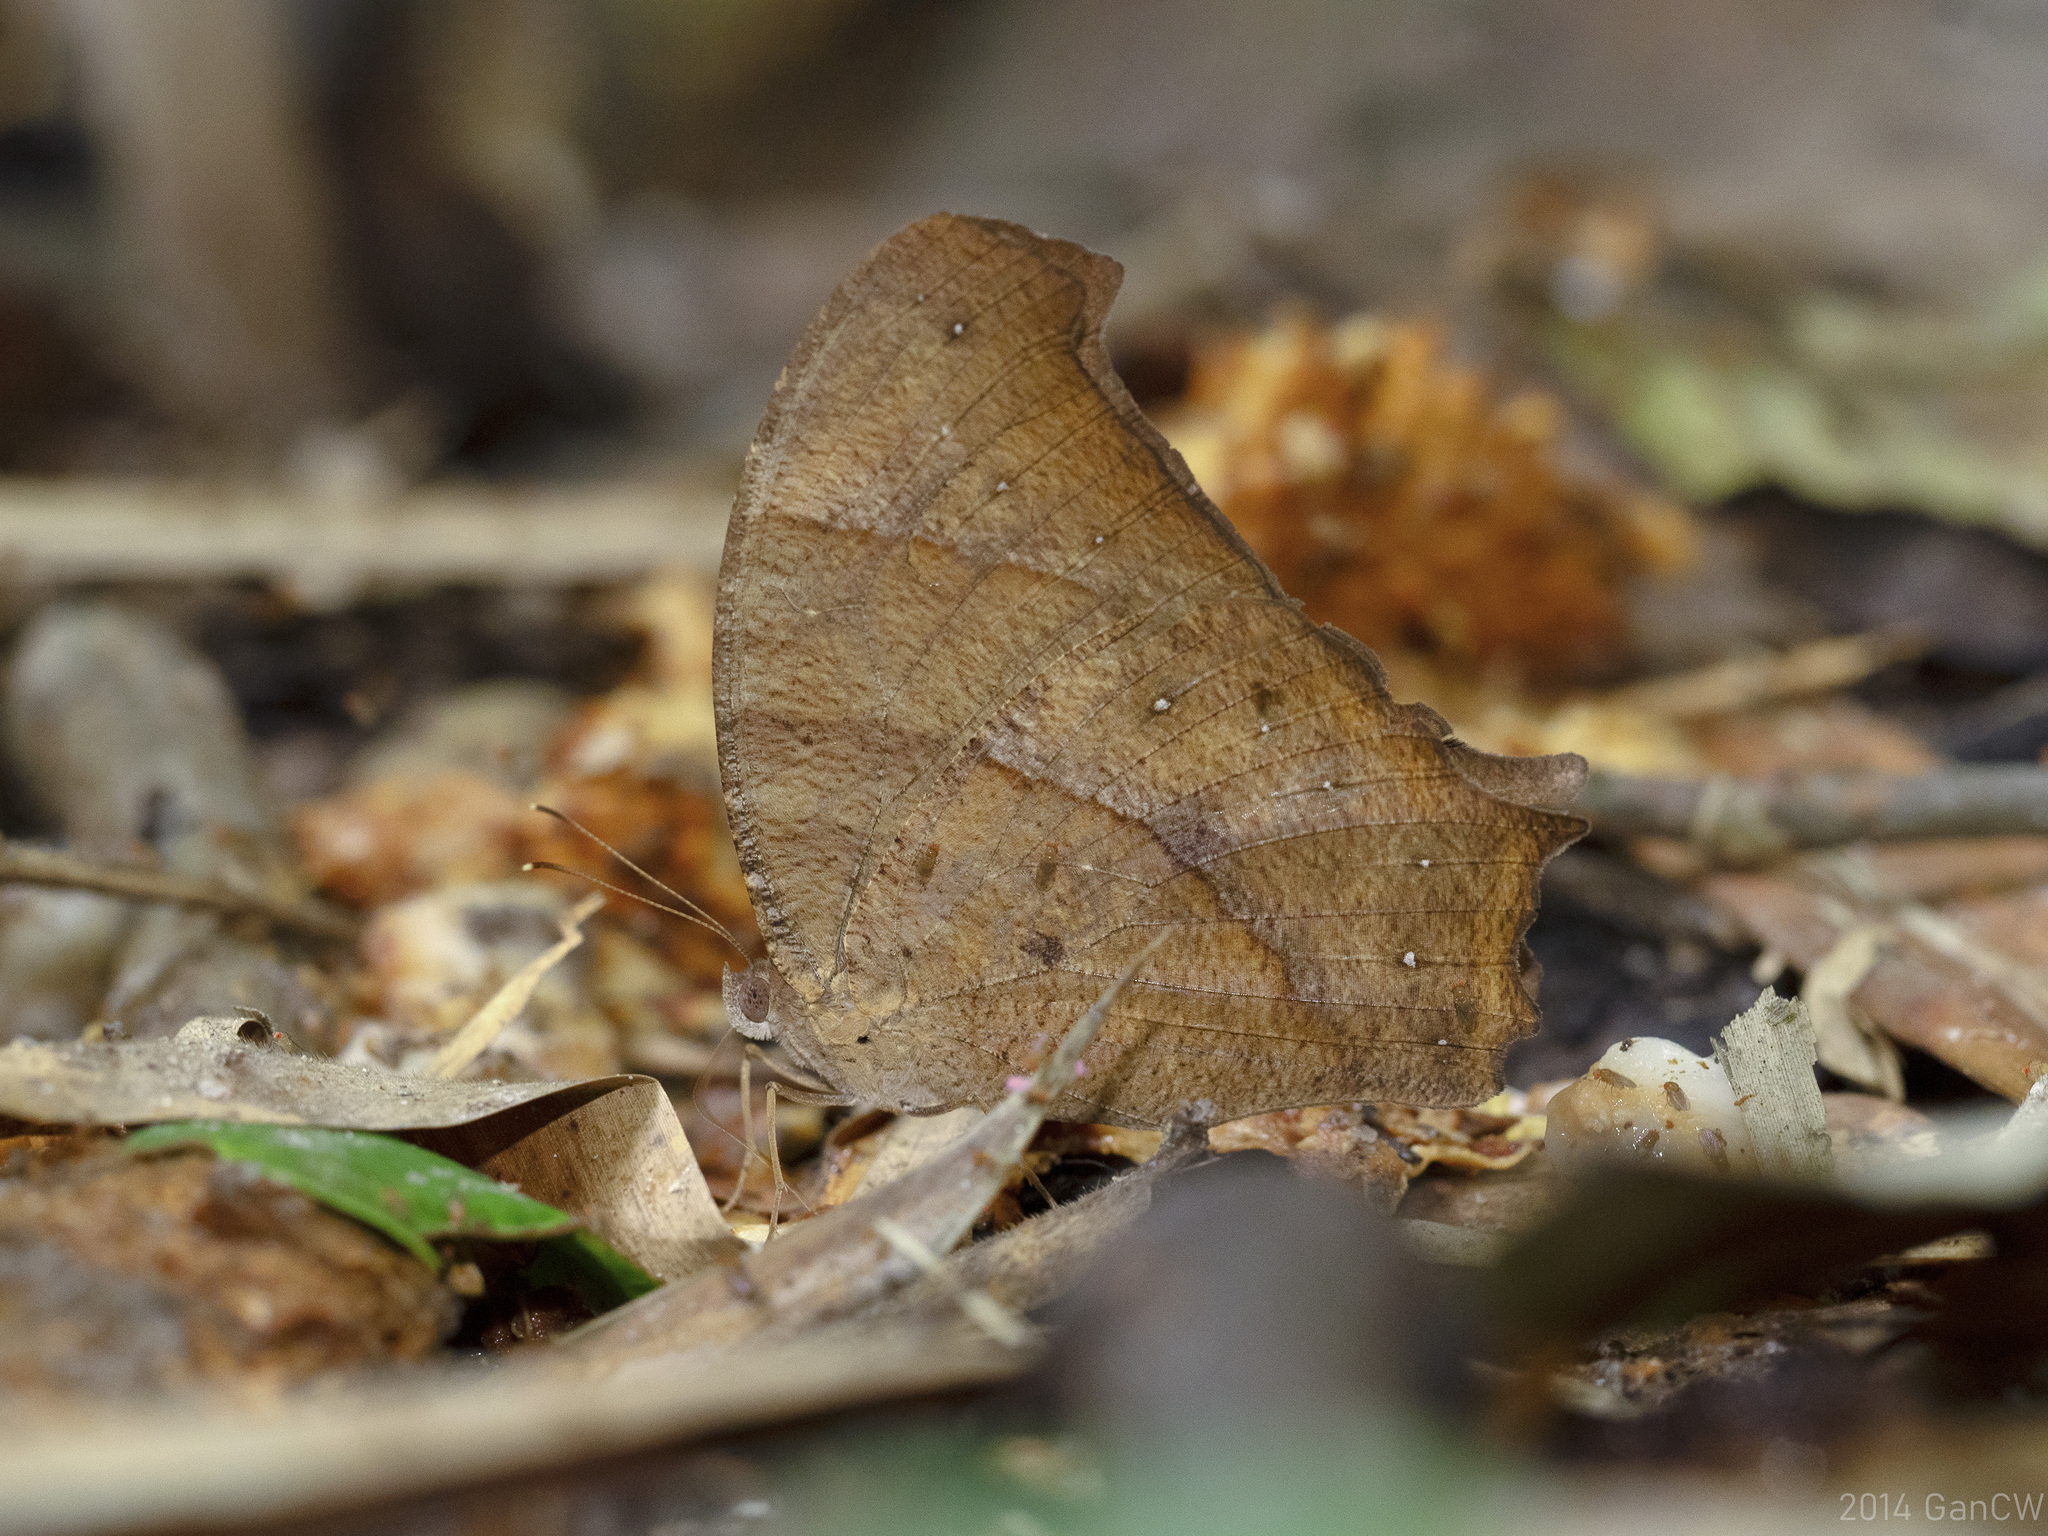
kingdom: Animalia
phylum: Arthropoda
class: Insecta
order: Lepidoptera
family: Nymphalidae
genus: Melanitis
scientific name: Melanitis phedima
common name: Dark evening brown
